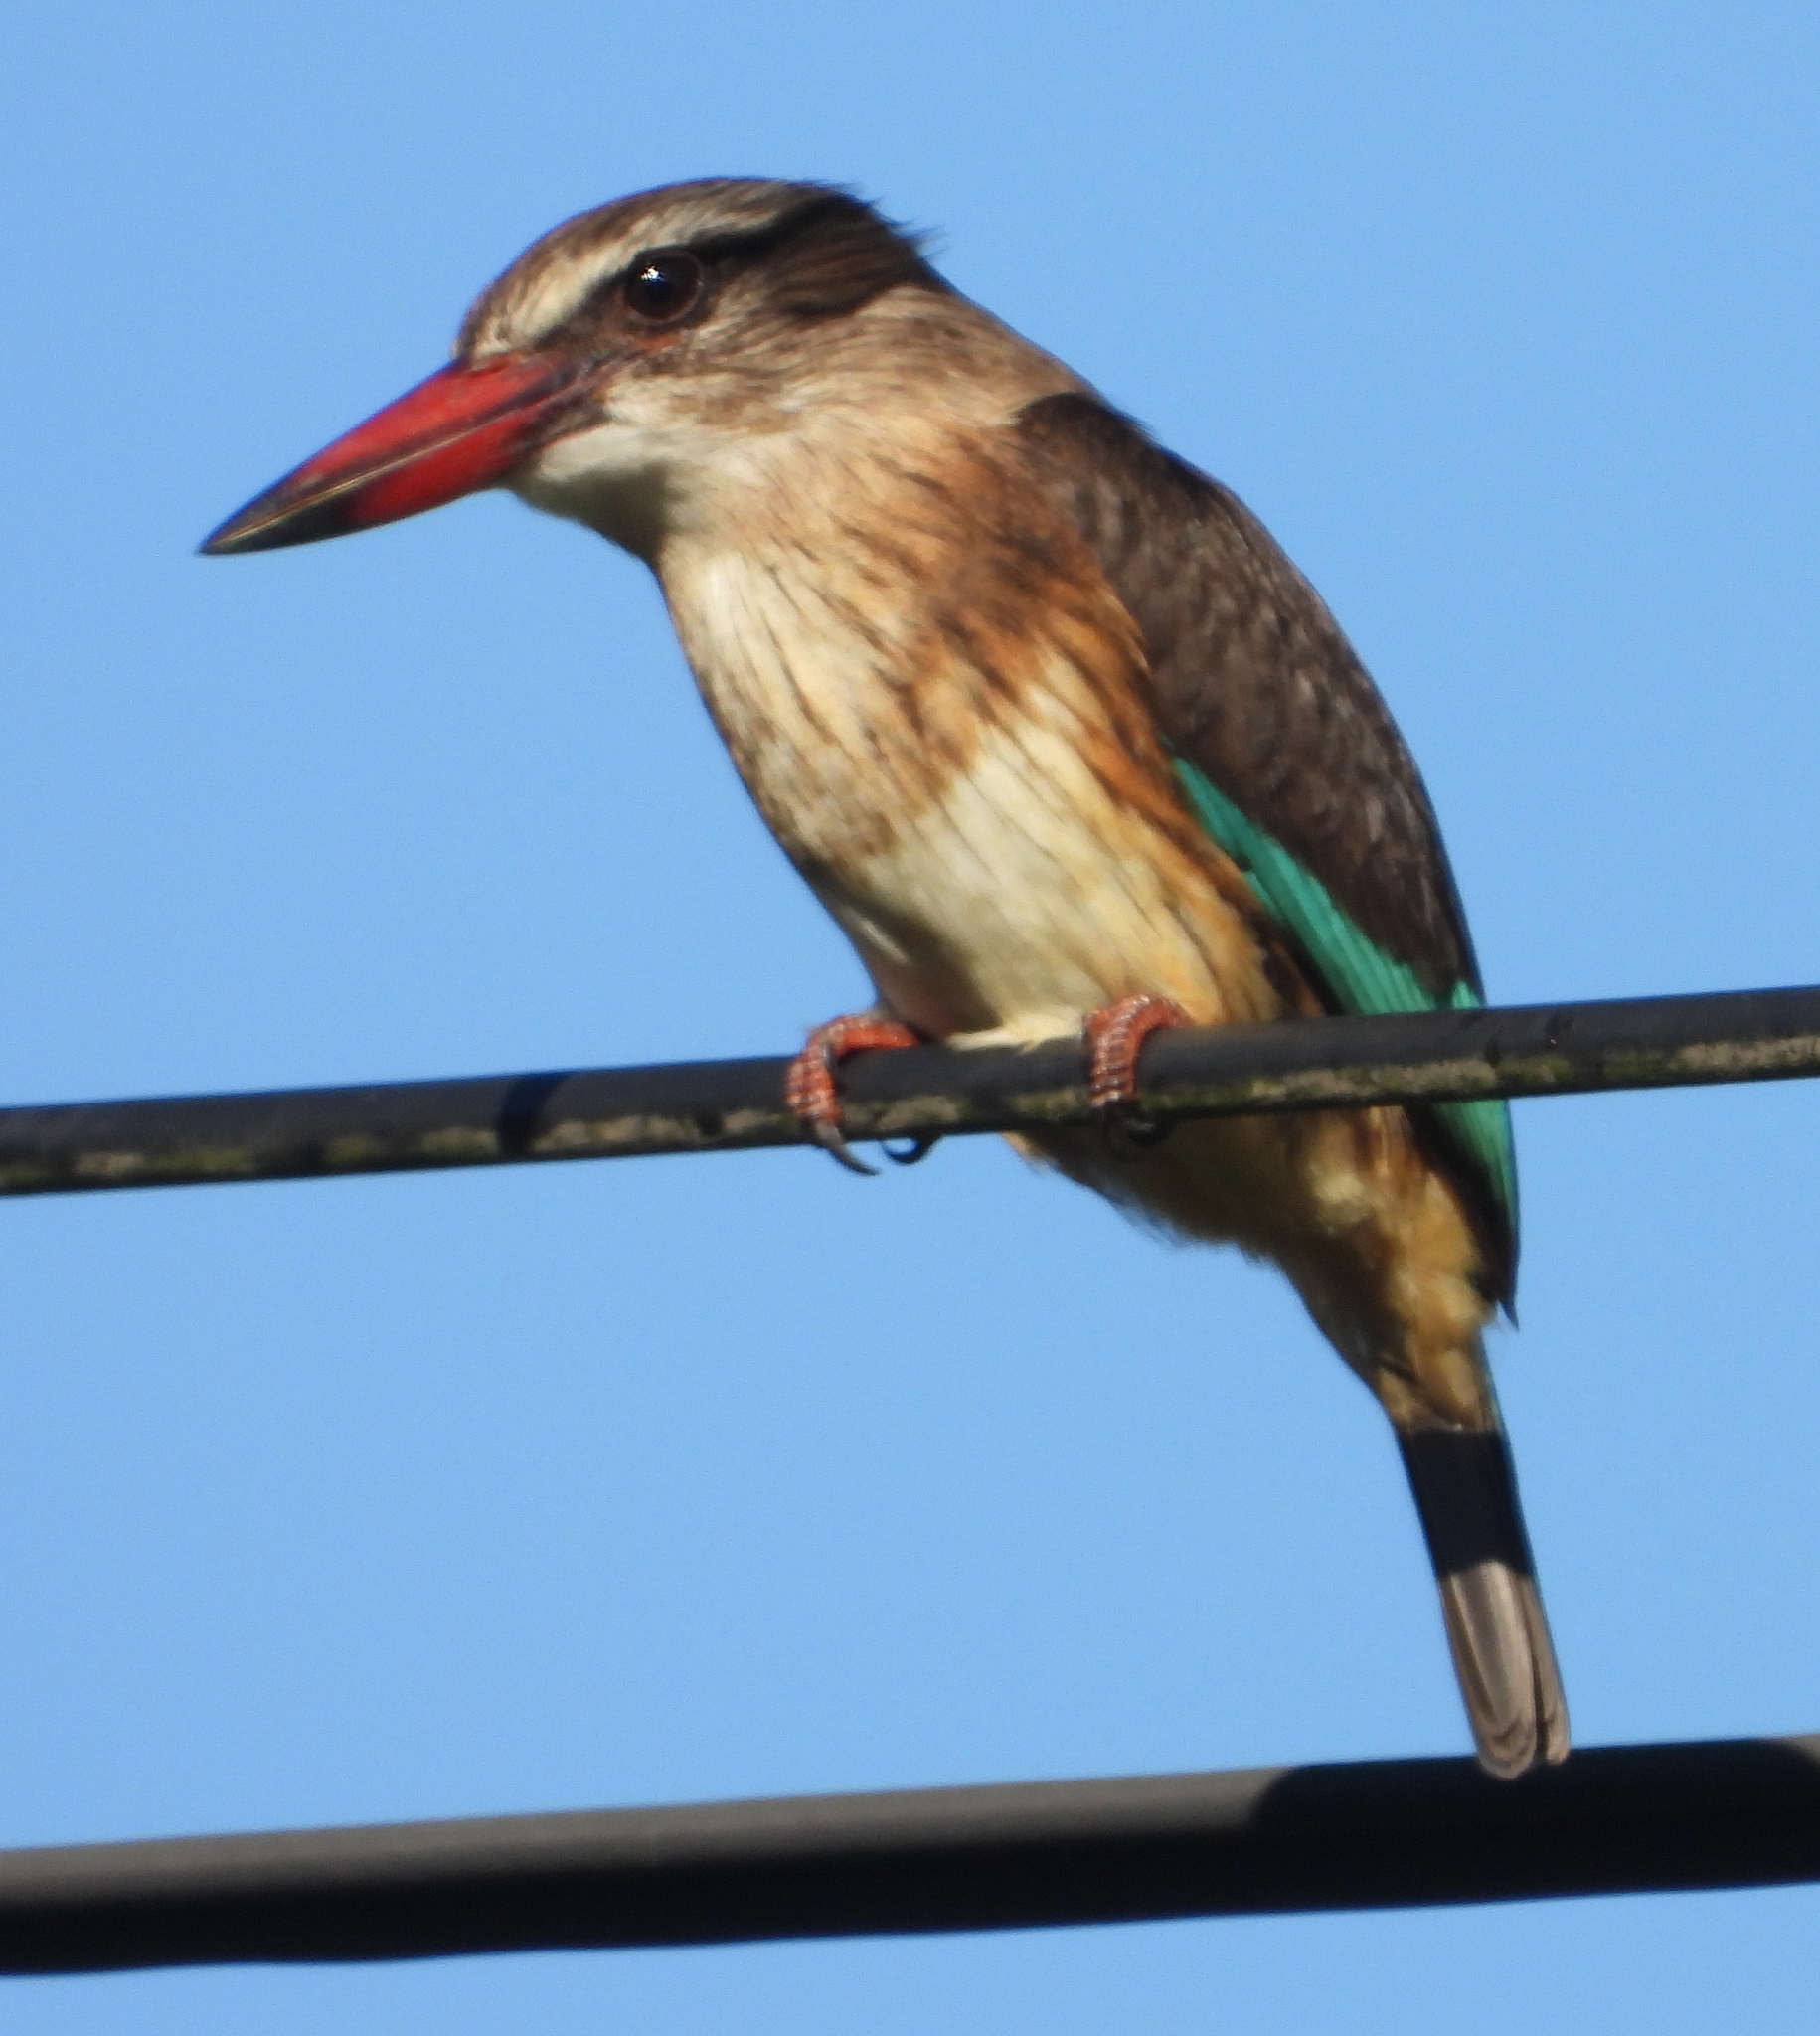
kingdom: Animalia
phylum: Chordata
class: Aves
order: Coraciiformes
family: Alcedinidae
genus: Halcyon
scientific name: Halcyon albiventris
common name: Brown-hooded kingfisher
